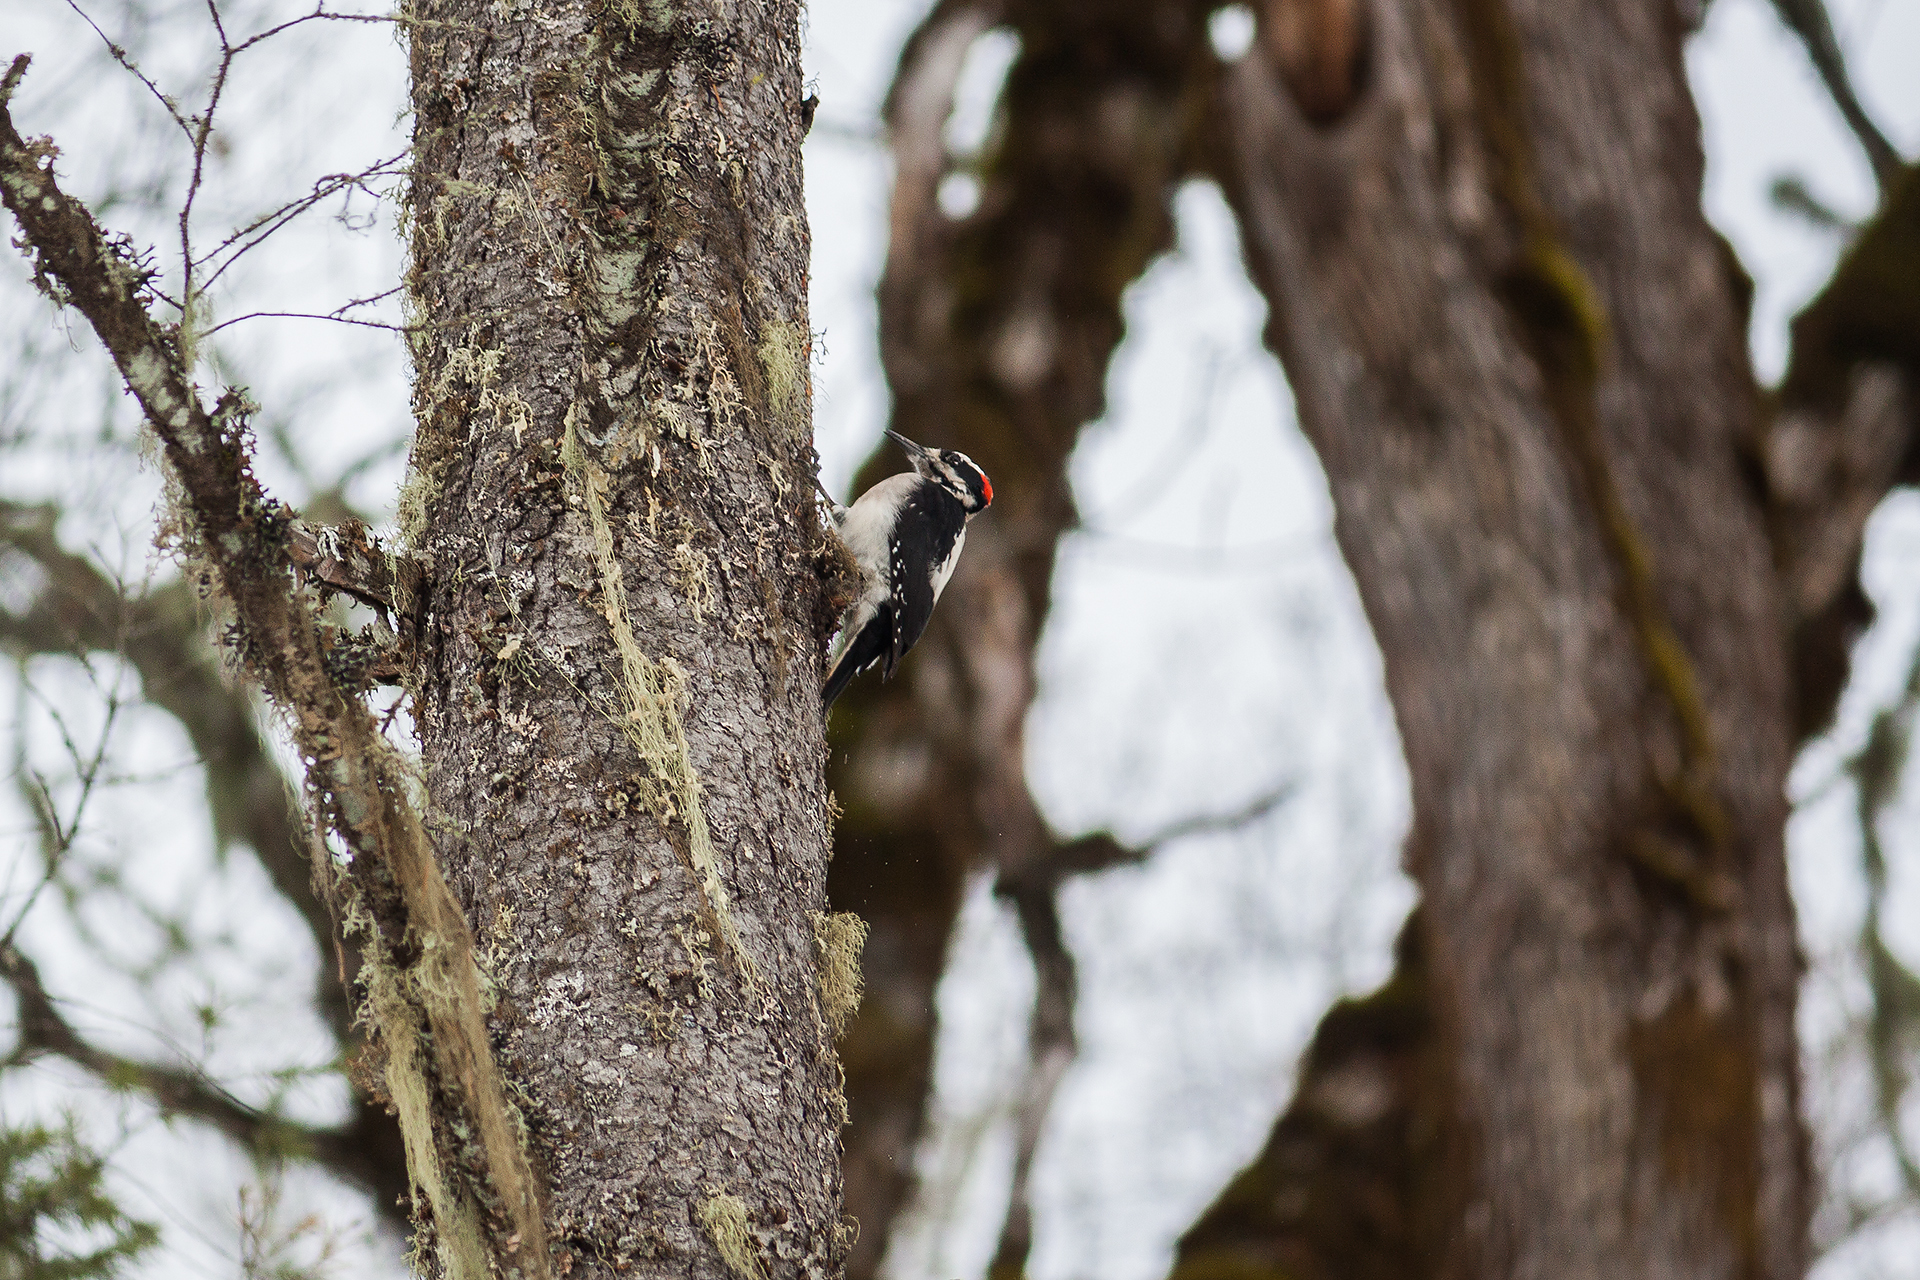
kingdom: Animalia
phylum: Chordata
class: Aves
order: Piciformes
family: Picidae
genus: Dryobates
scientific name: Dryobates pubescens
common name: Downy woodpecker
